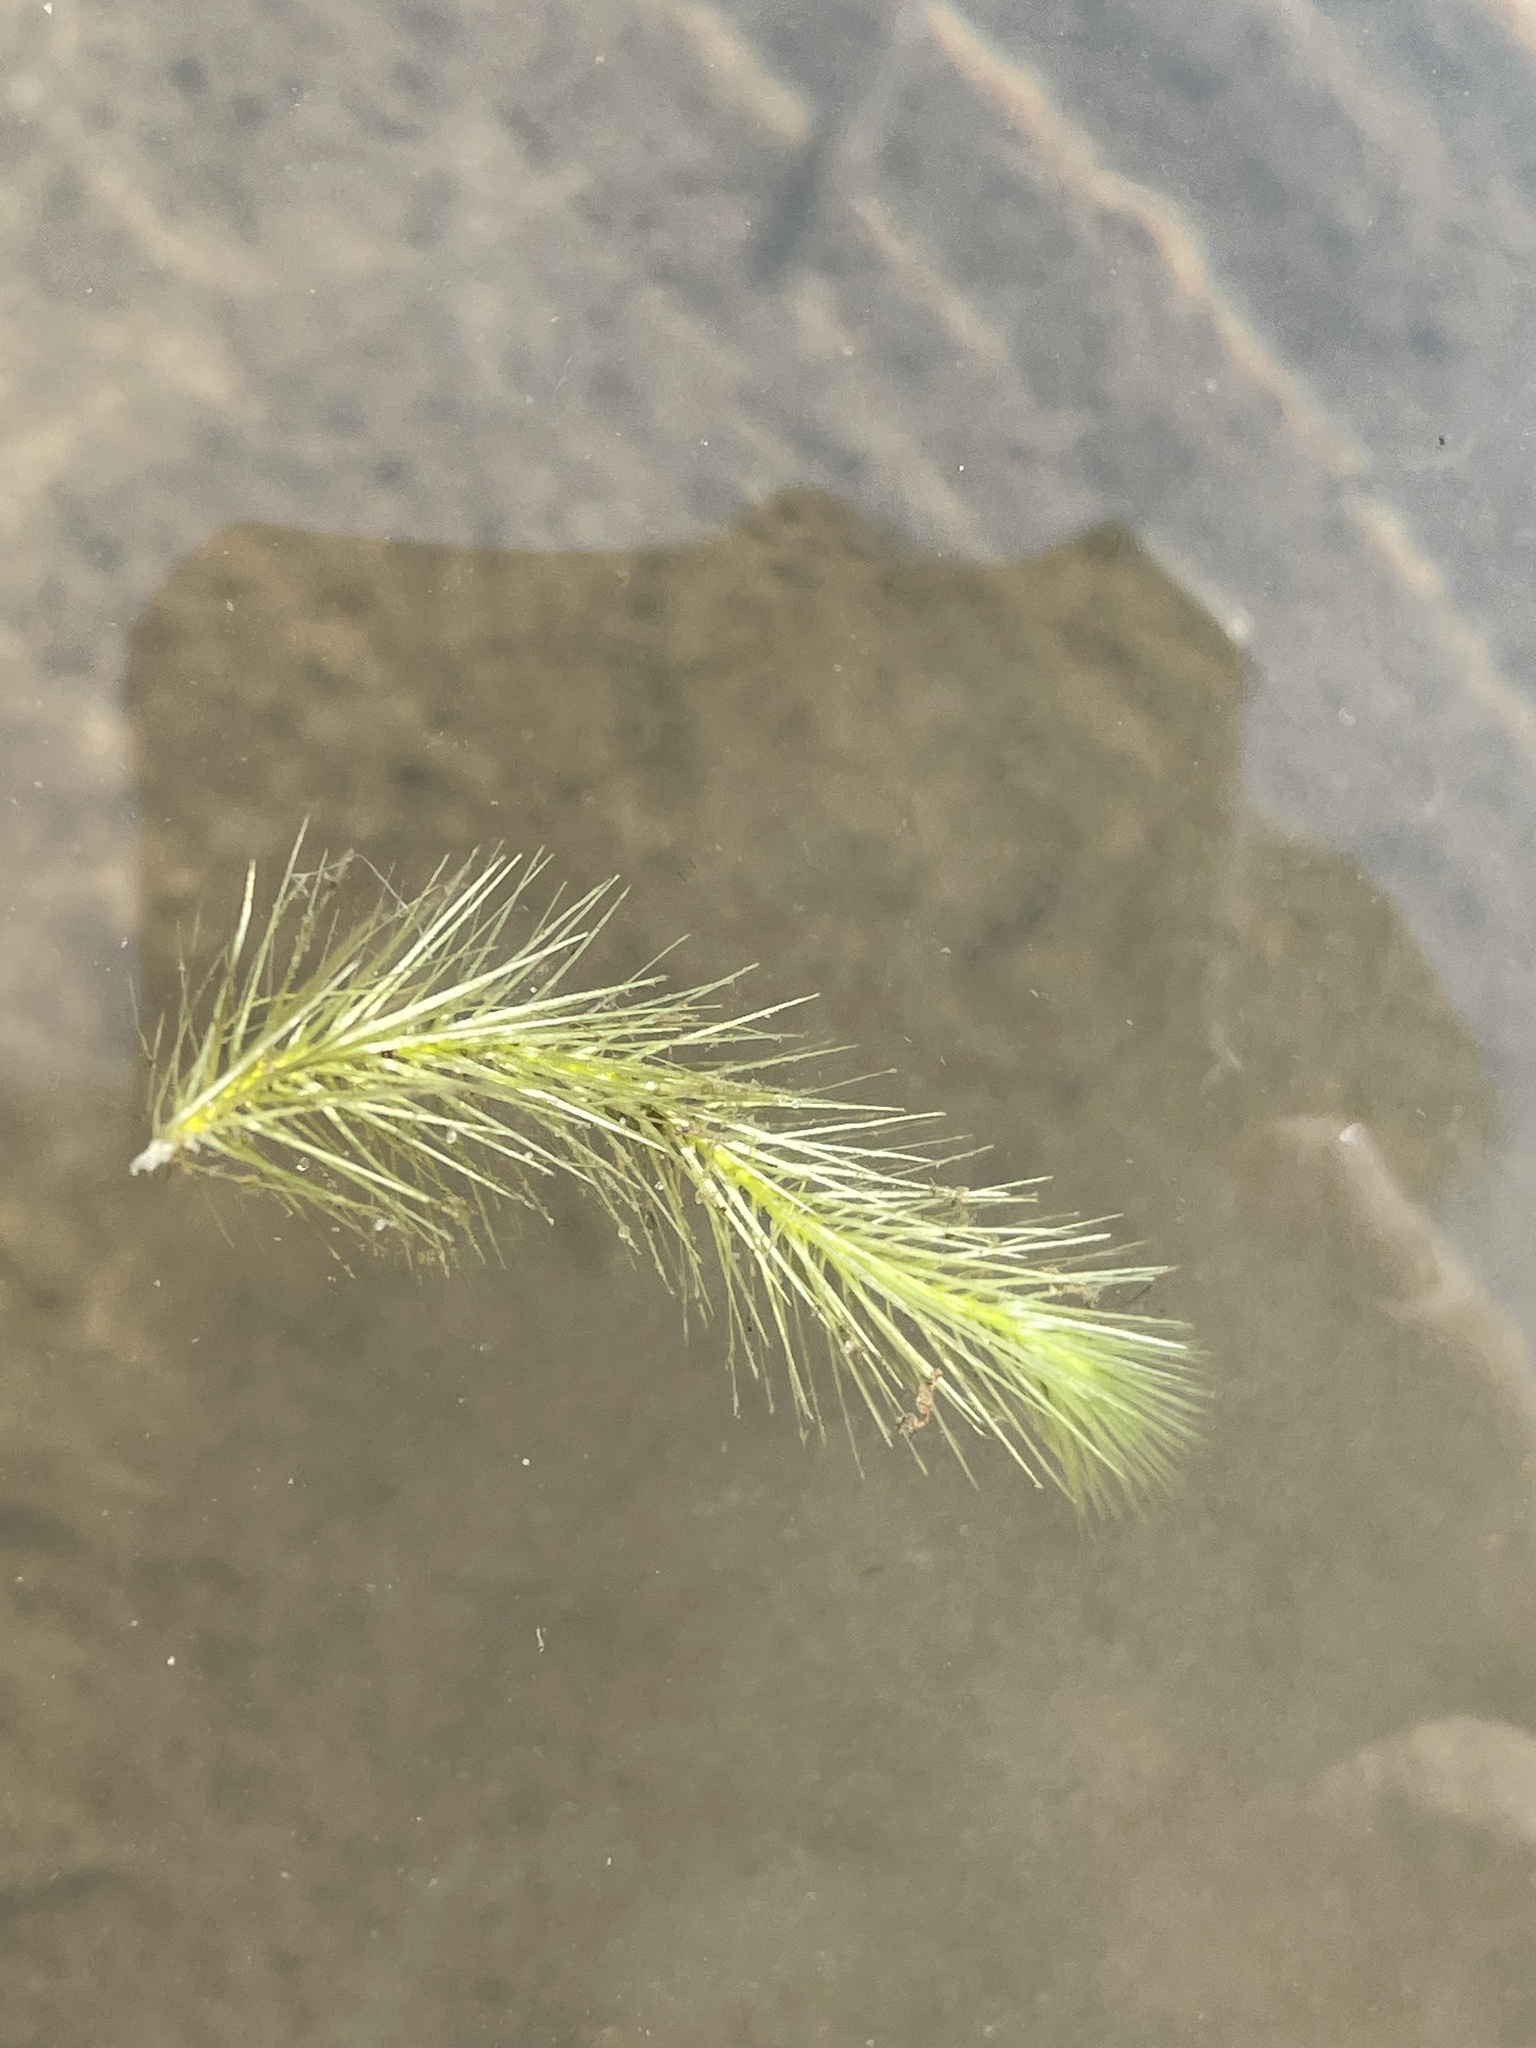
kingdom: Plantae
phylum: Tracheophyta
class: Liliopsida
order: Poales
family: Mayacaceae
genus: Mayaca
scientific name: Mayaca baumii
